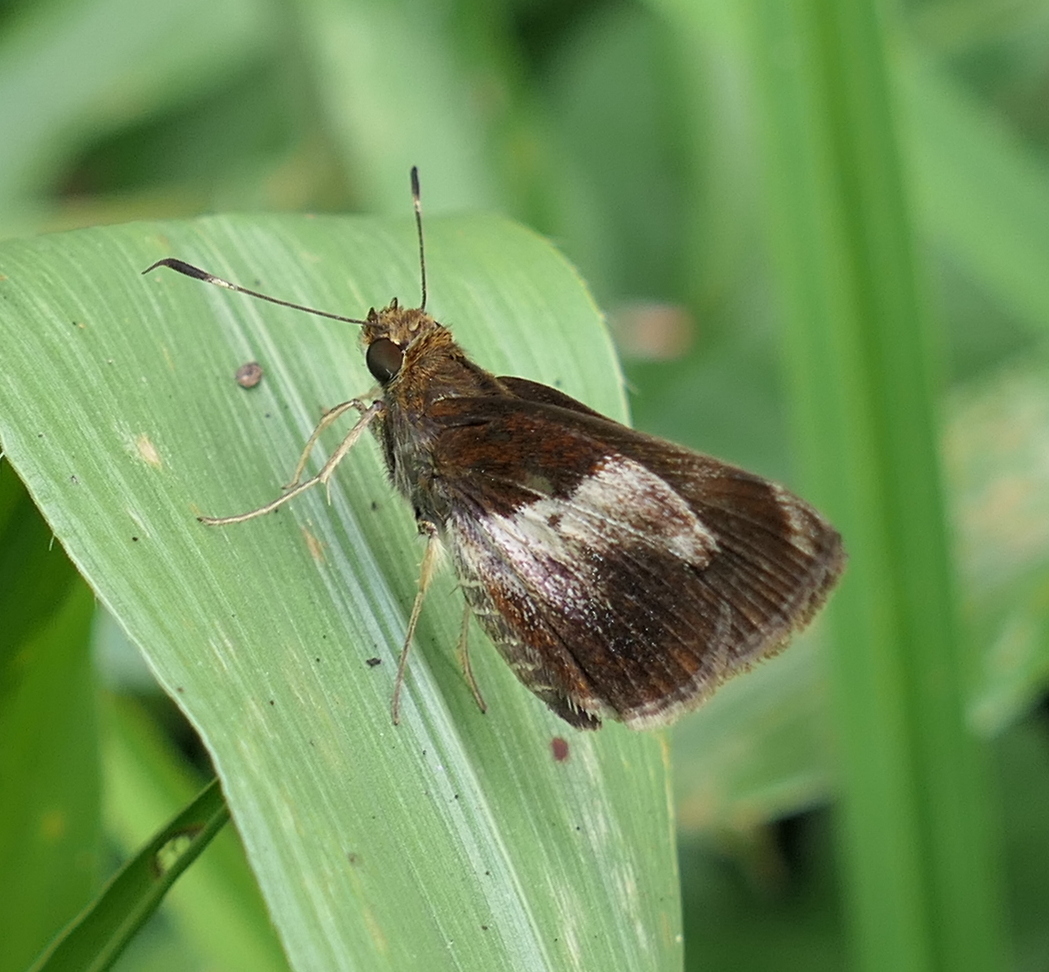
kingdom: Animalia
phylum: Arthropoda
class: Insecta
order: Lepidoptera
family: Hesperiidae
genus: Moeris
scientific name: Moeris remus
